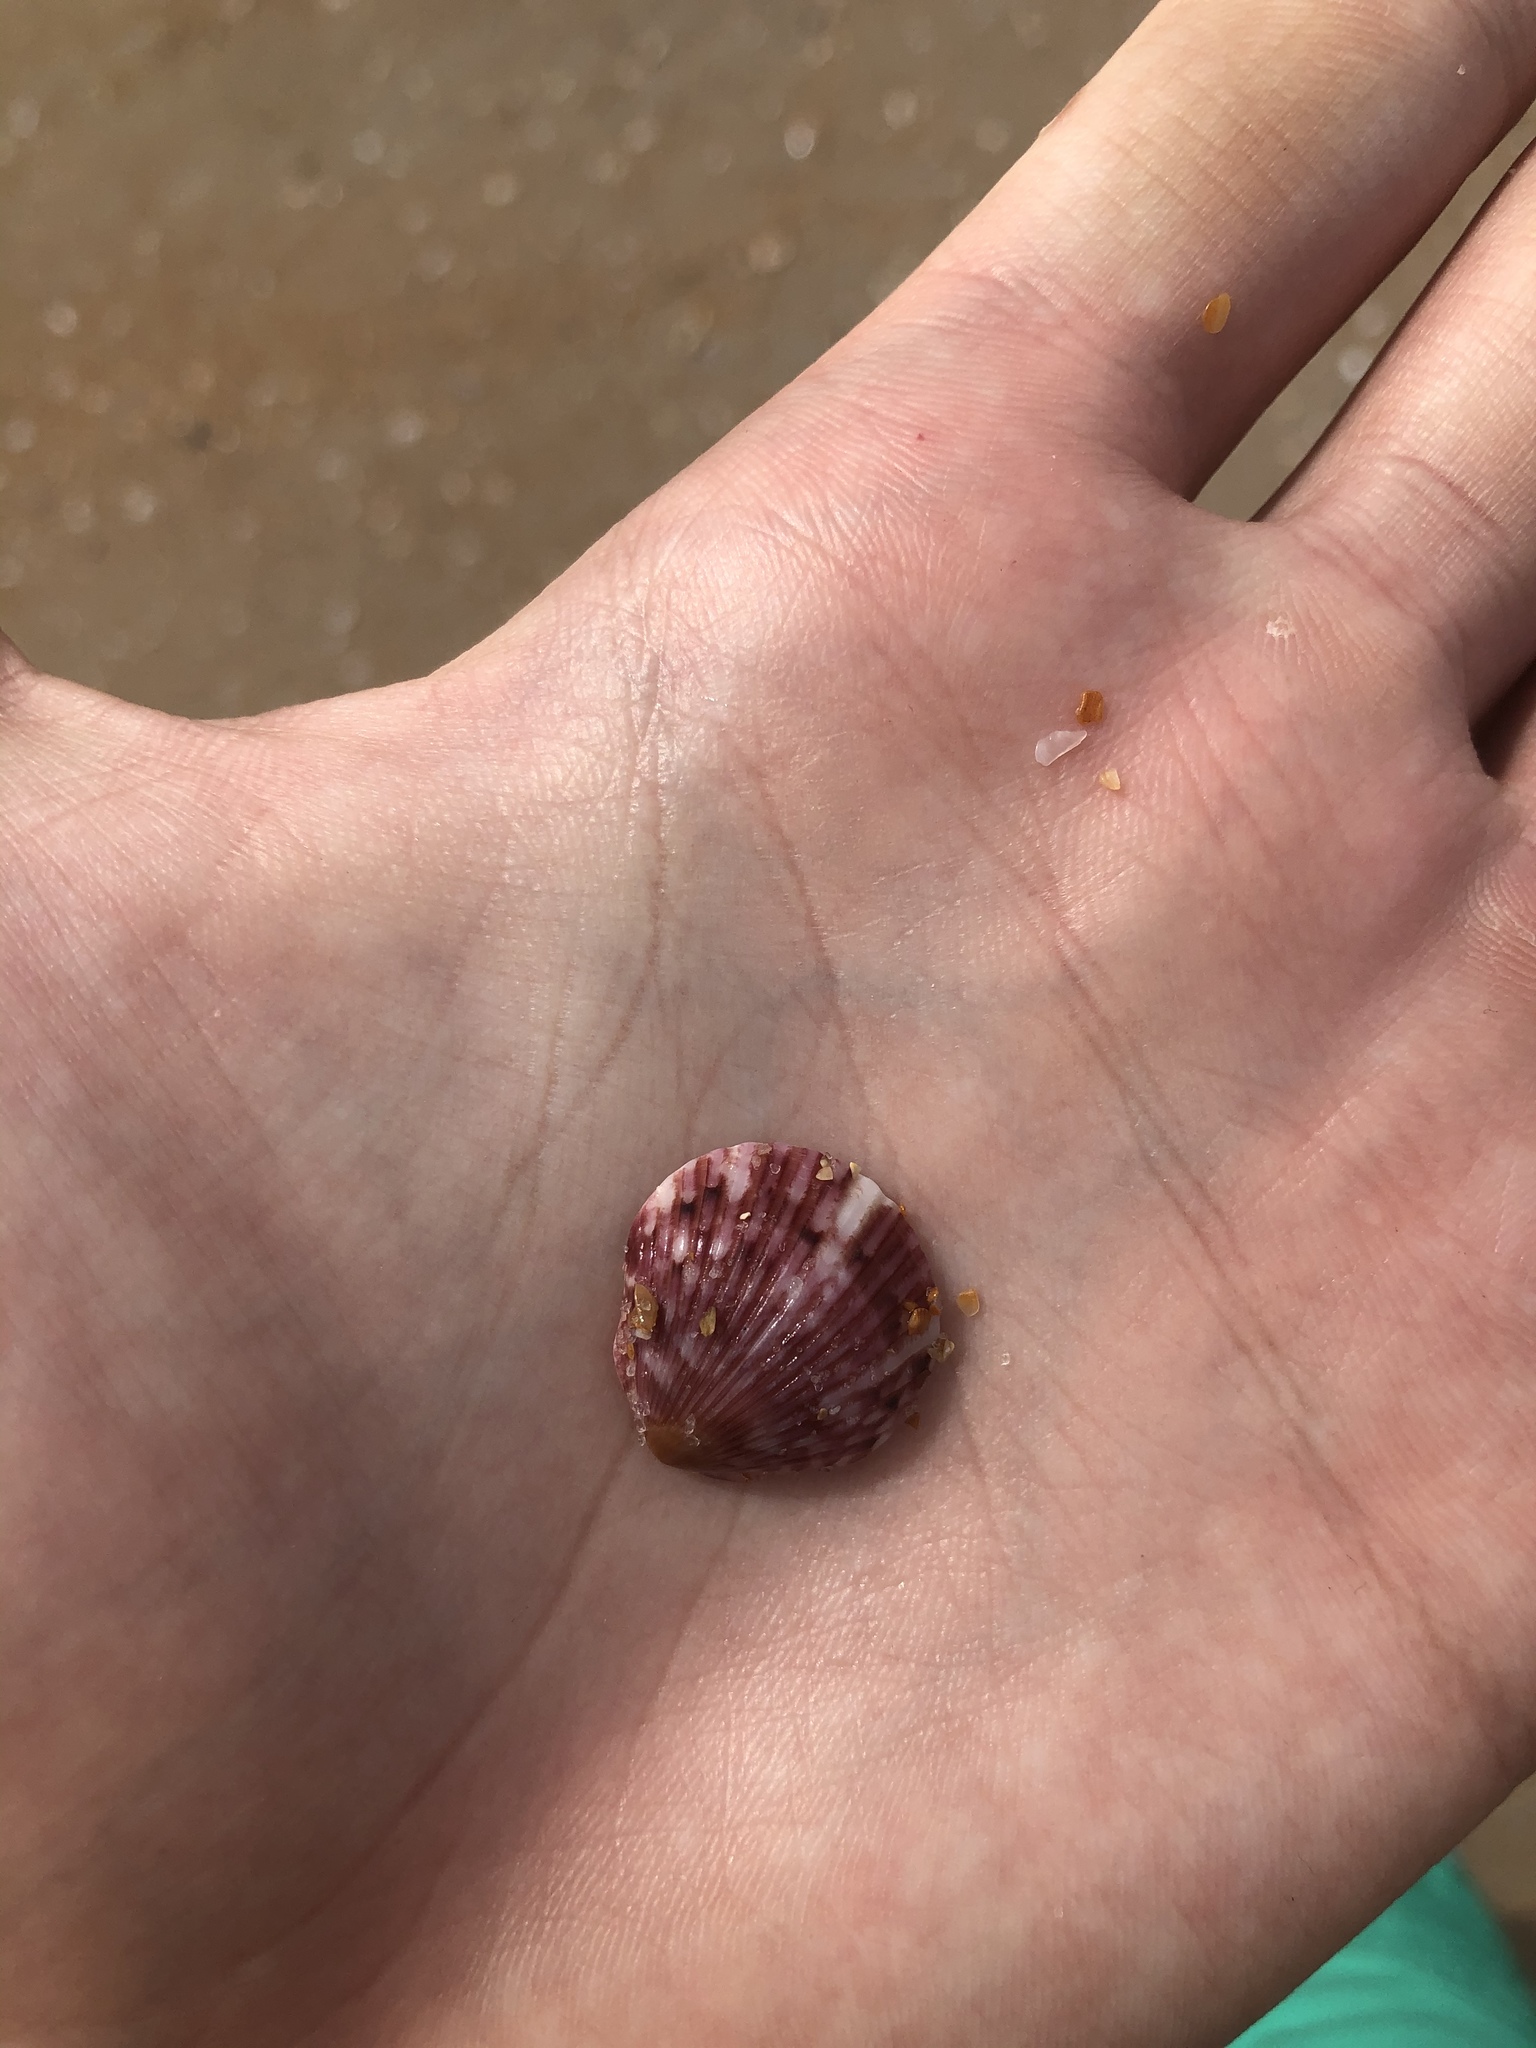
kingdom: Animalia
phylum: Mollusca
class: Bivalvia
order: Pectinida
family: Pectinidae
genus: Argopecten
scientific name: Argopecten gibbus
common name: Atlantic calico scallop
